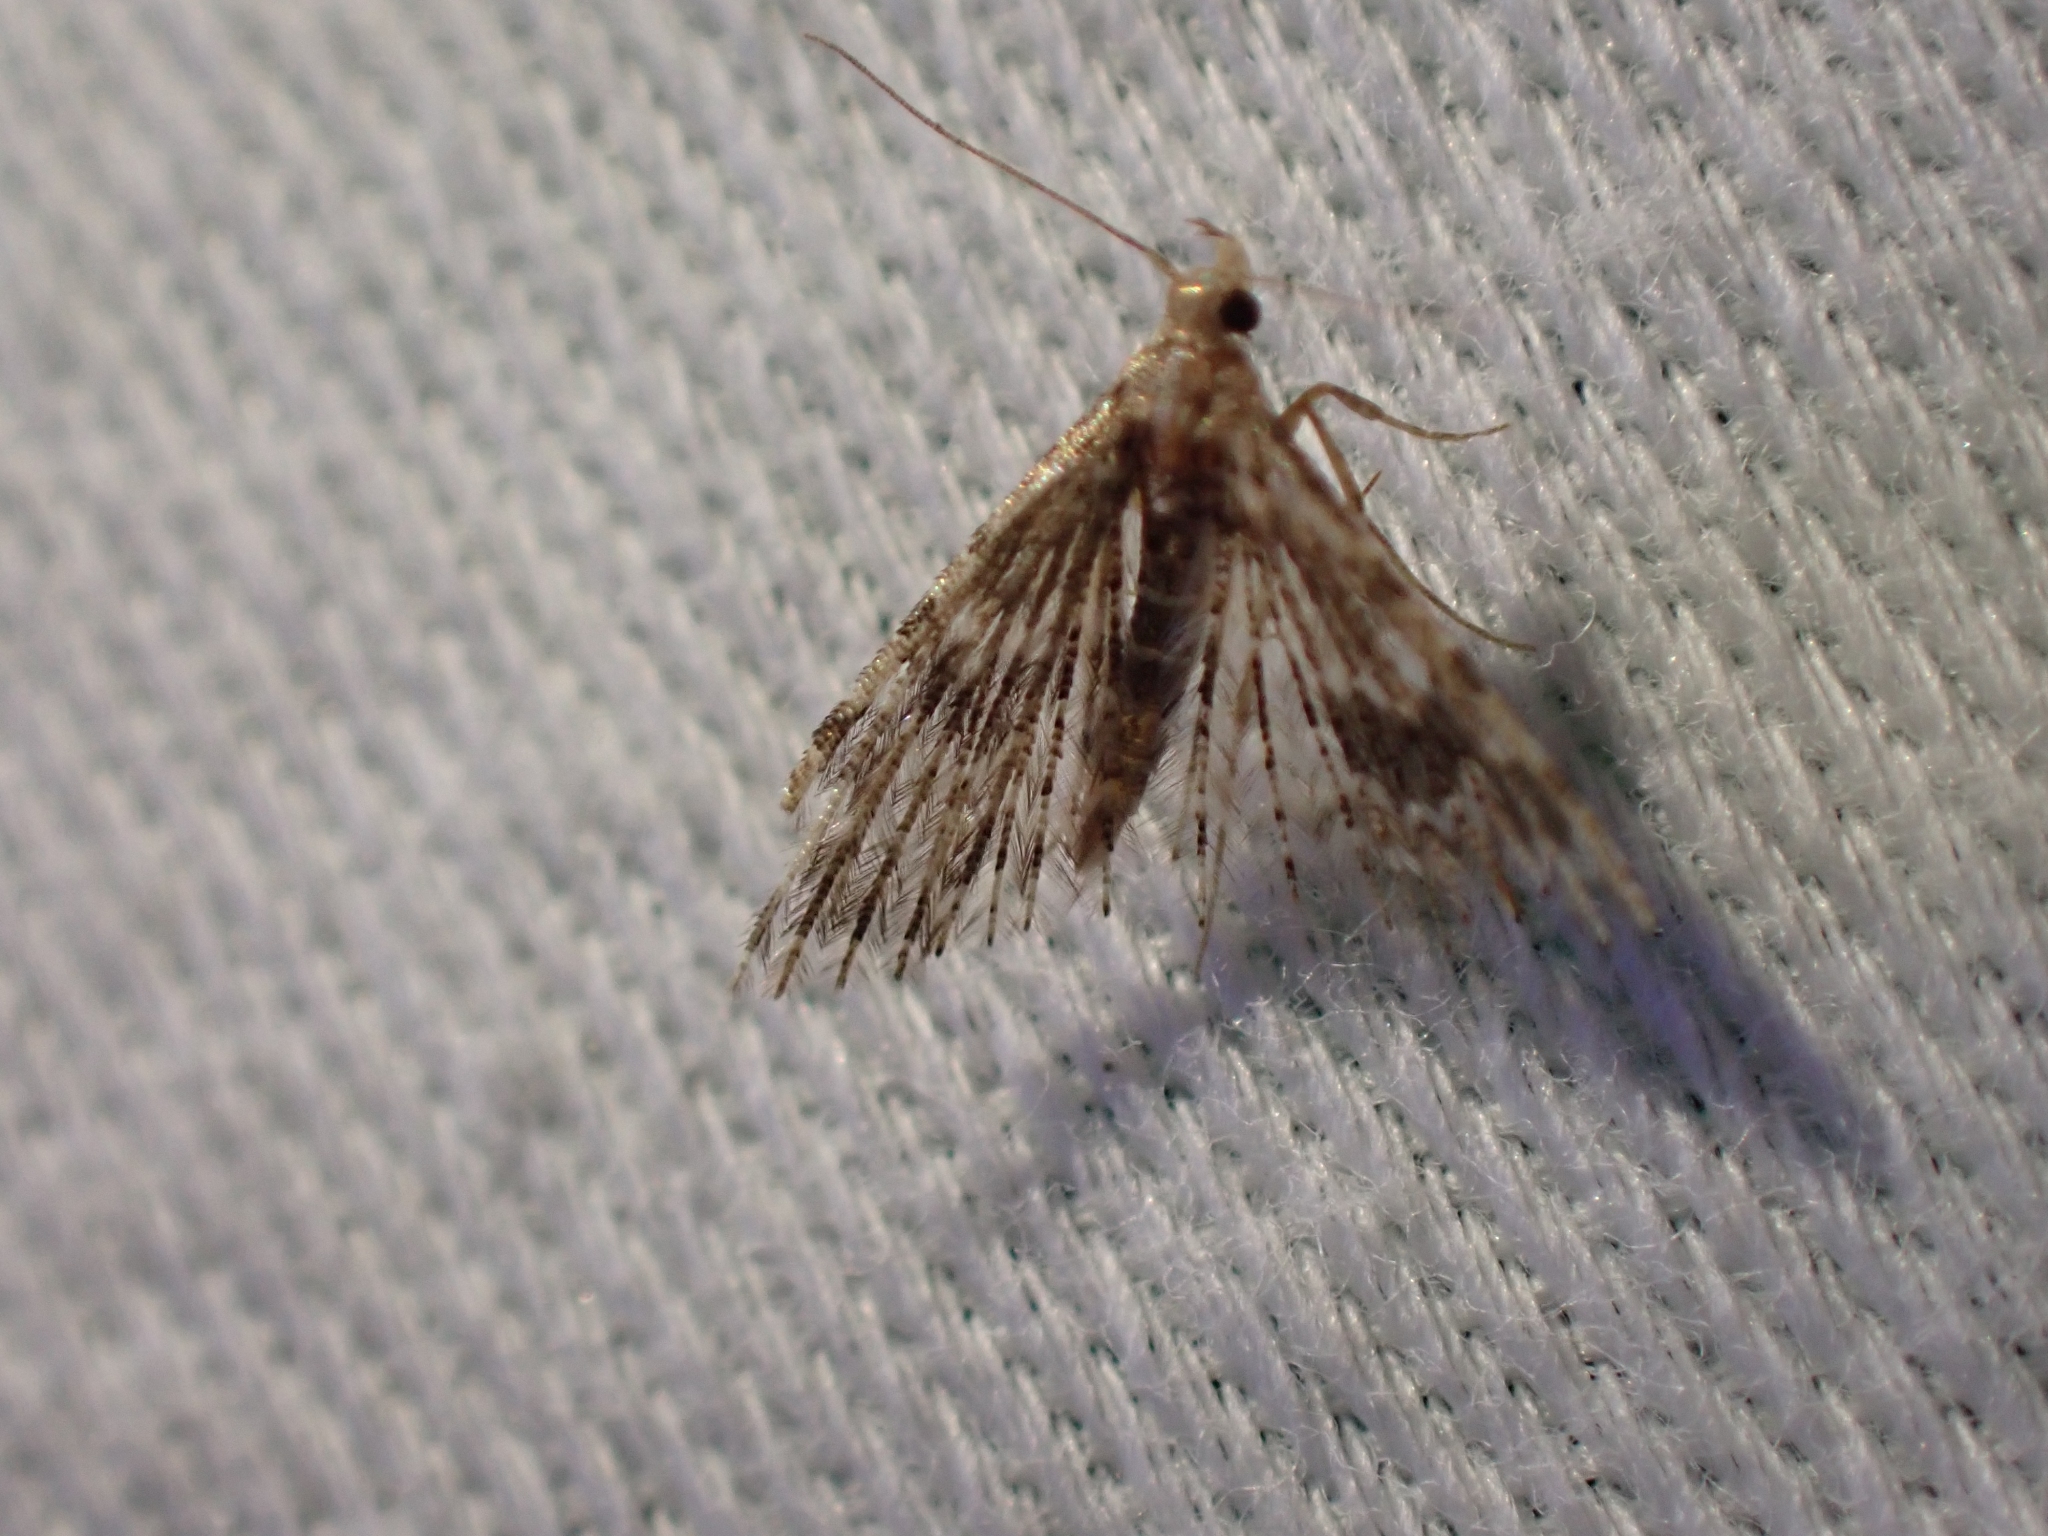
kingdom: Animalia
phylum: Arthropoda
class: Insecta
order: Lepidoptera
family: Alucitidae
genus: Alucita
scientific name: Alucita montana
